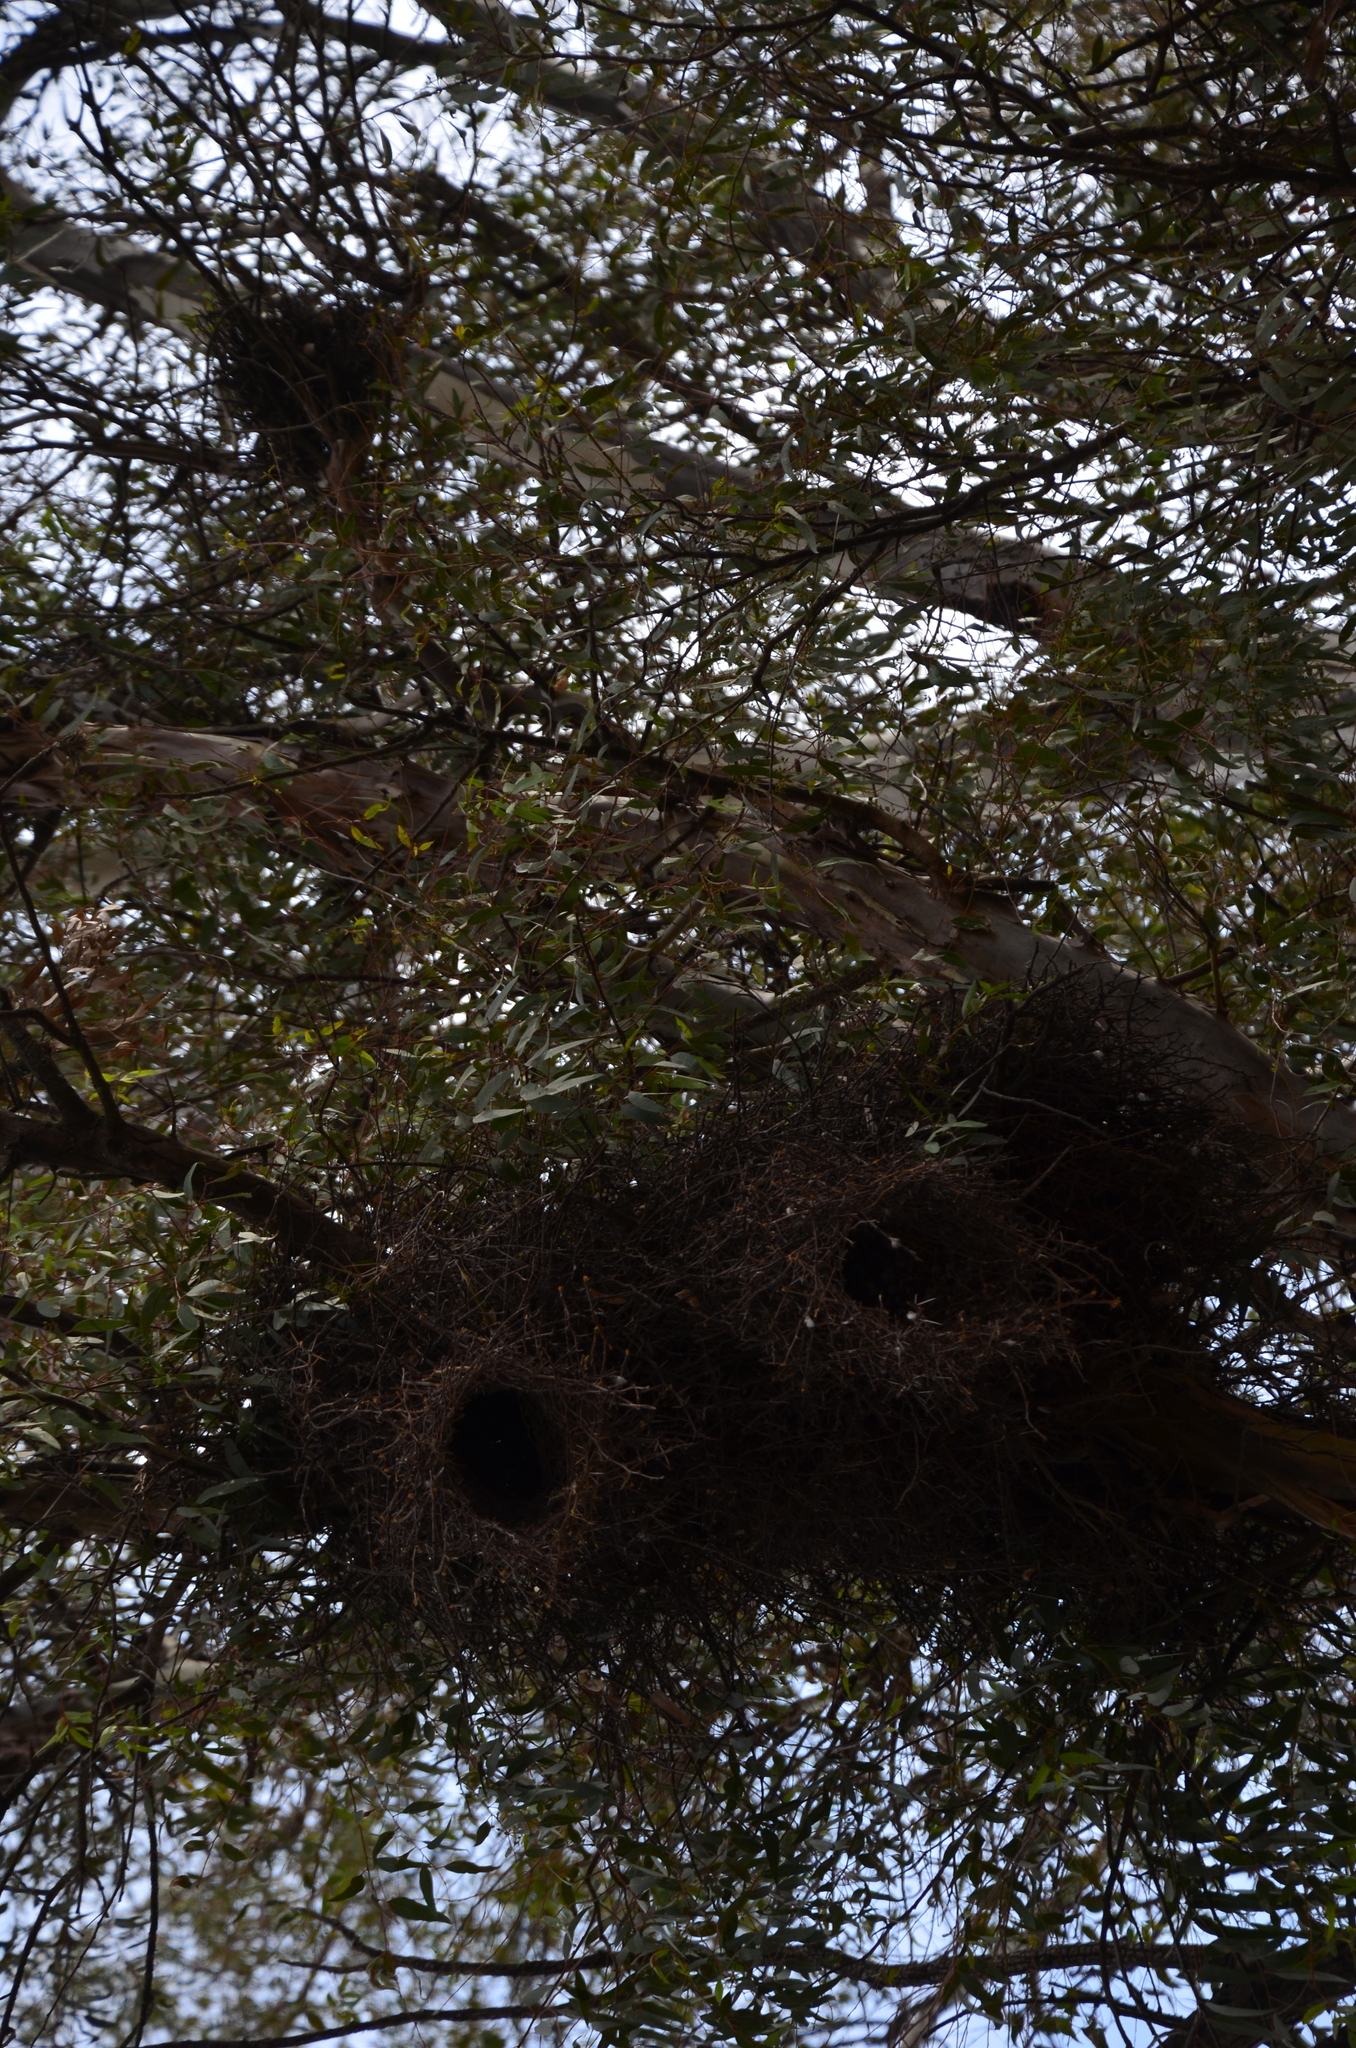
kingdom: Animalia
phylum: Chordata
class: Aves
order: Psittaciformes
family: Psittacidae
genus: Myiopsitta
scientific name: Myiopsitta monachus
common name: Monk parakeet
